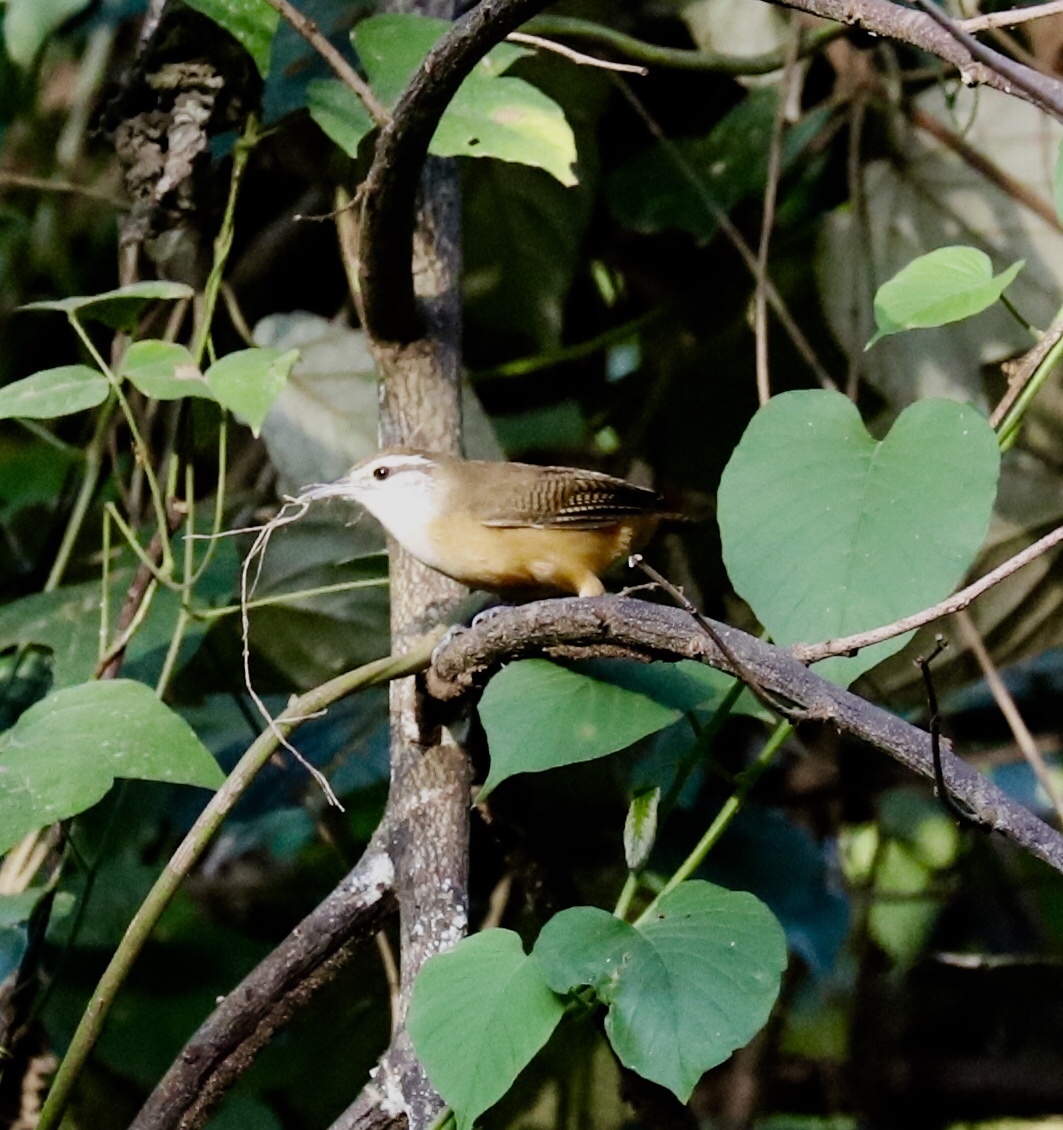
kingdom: Animalia
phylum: Chordata
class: Aves
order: Passeriformes
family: Troglodytidae
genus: Cantorchilus
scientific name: Cantorchilus leucotis
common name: Buff-breasted wren
